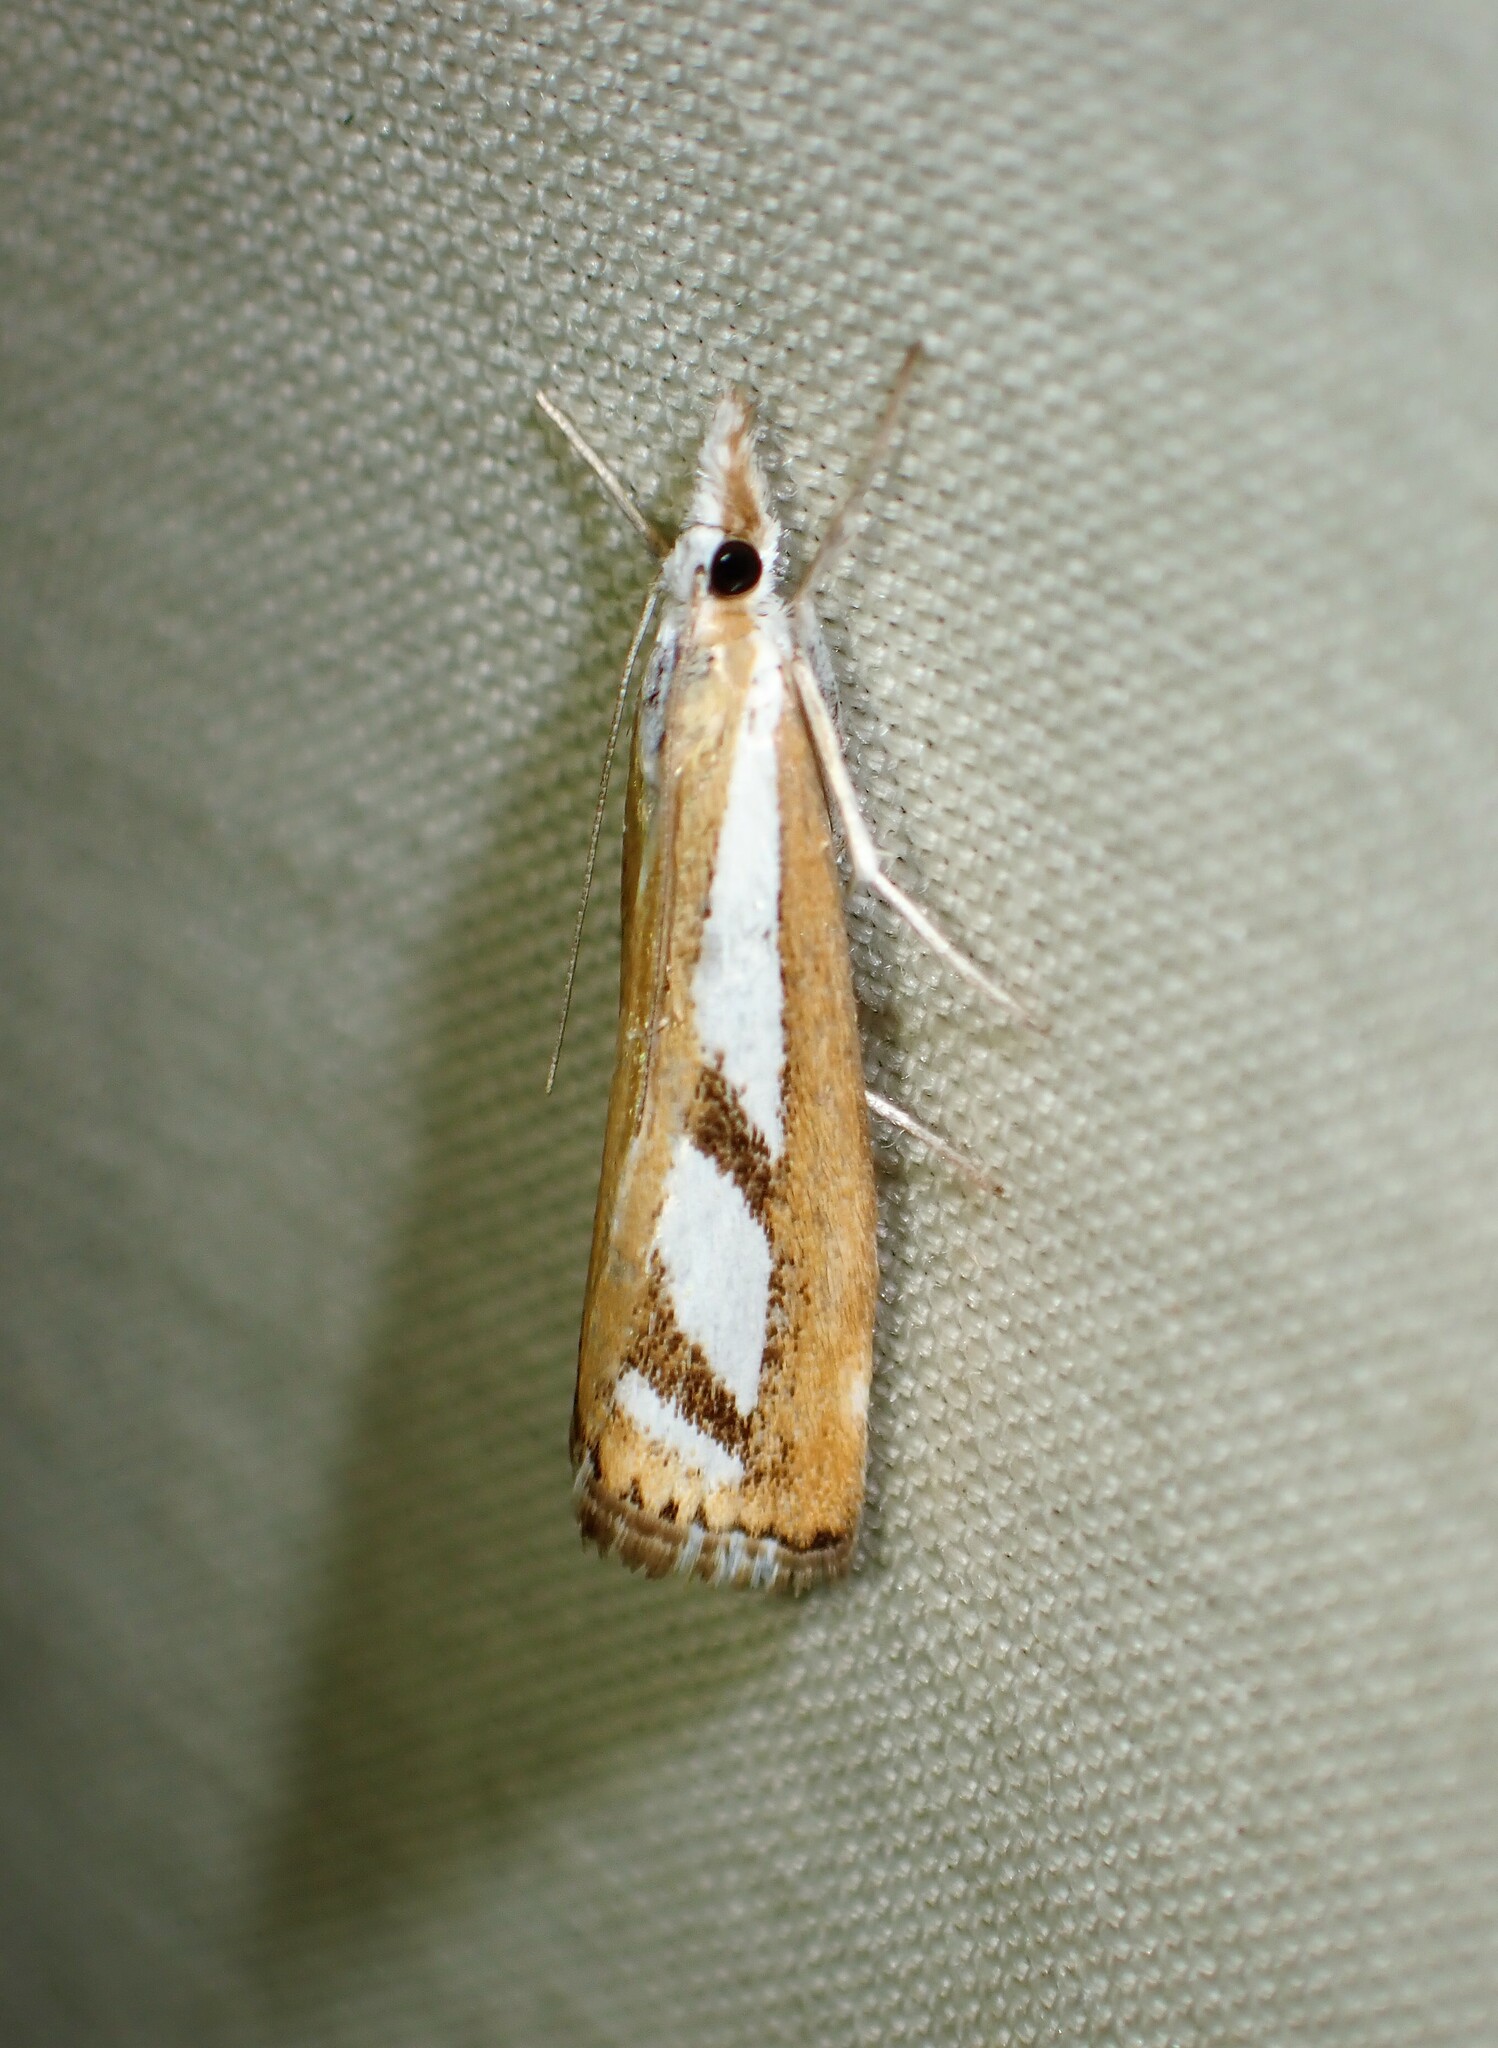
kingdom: Animalia
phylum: Arthropoda
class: Insecta
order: Lepidoptera
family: Crambidae
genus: Catoptria
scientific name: Catoptria latiradiellus
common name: Two-banded catoptria moth
